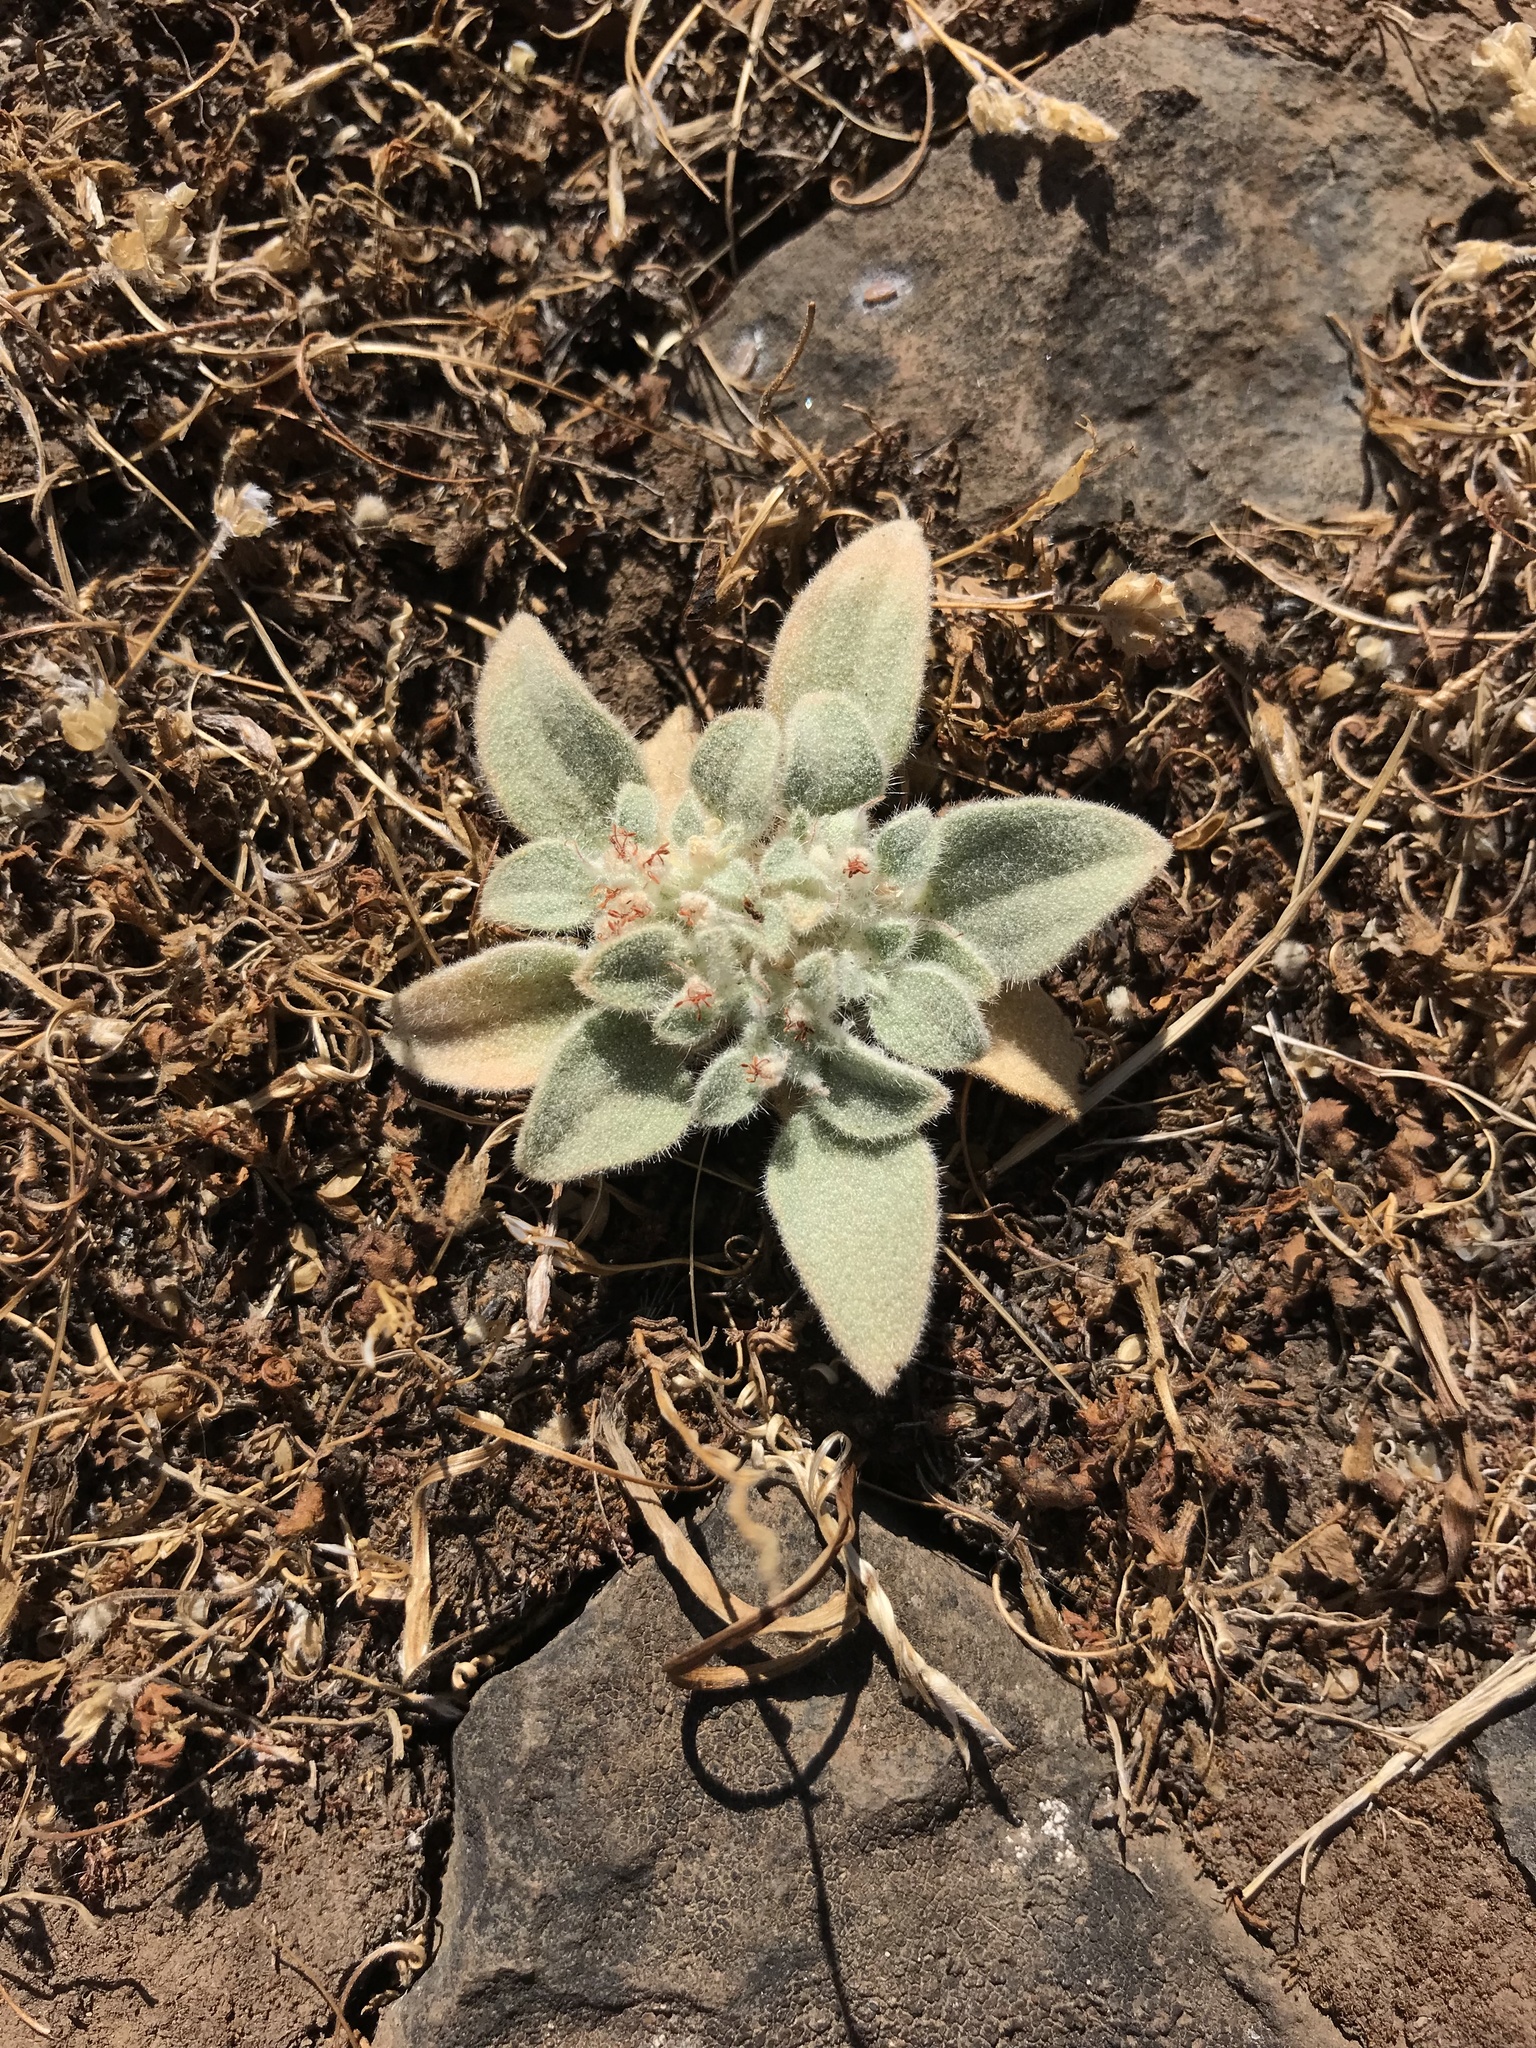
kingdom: Plantae
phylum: Tracheophyta
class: Magnoliopsida
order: Malpighiales
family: Euphorbiaceae
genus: Croton
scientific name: Croton setiger
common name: Dove weed
